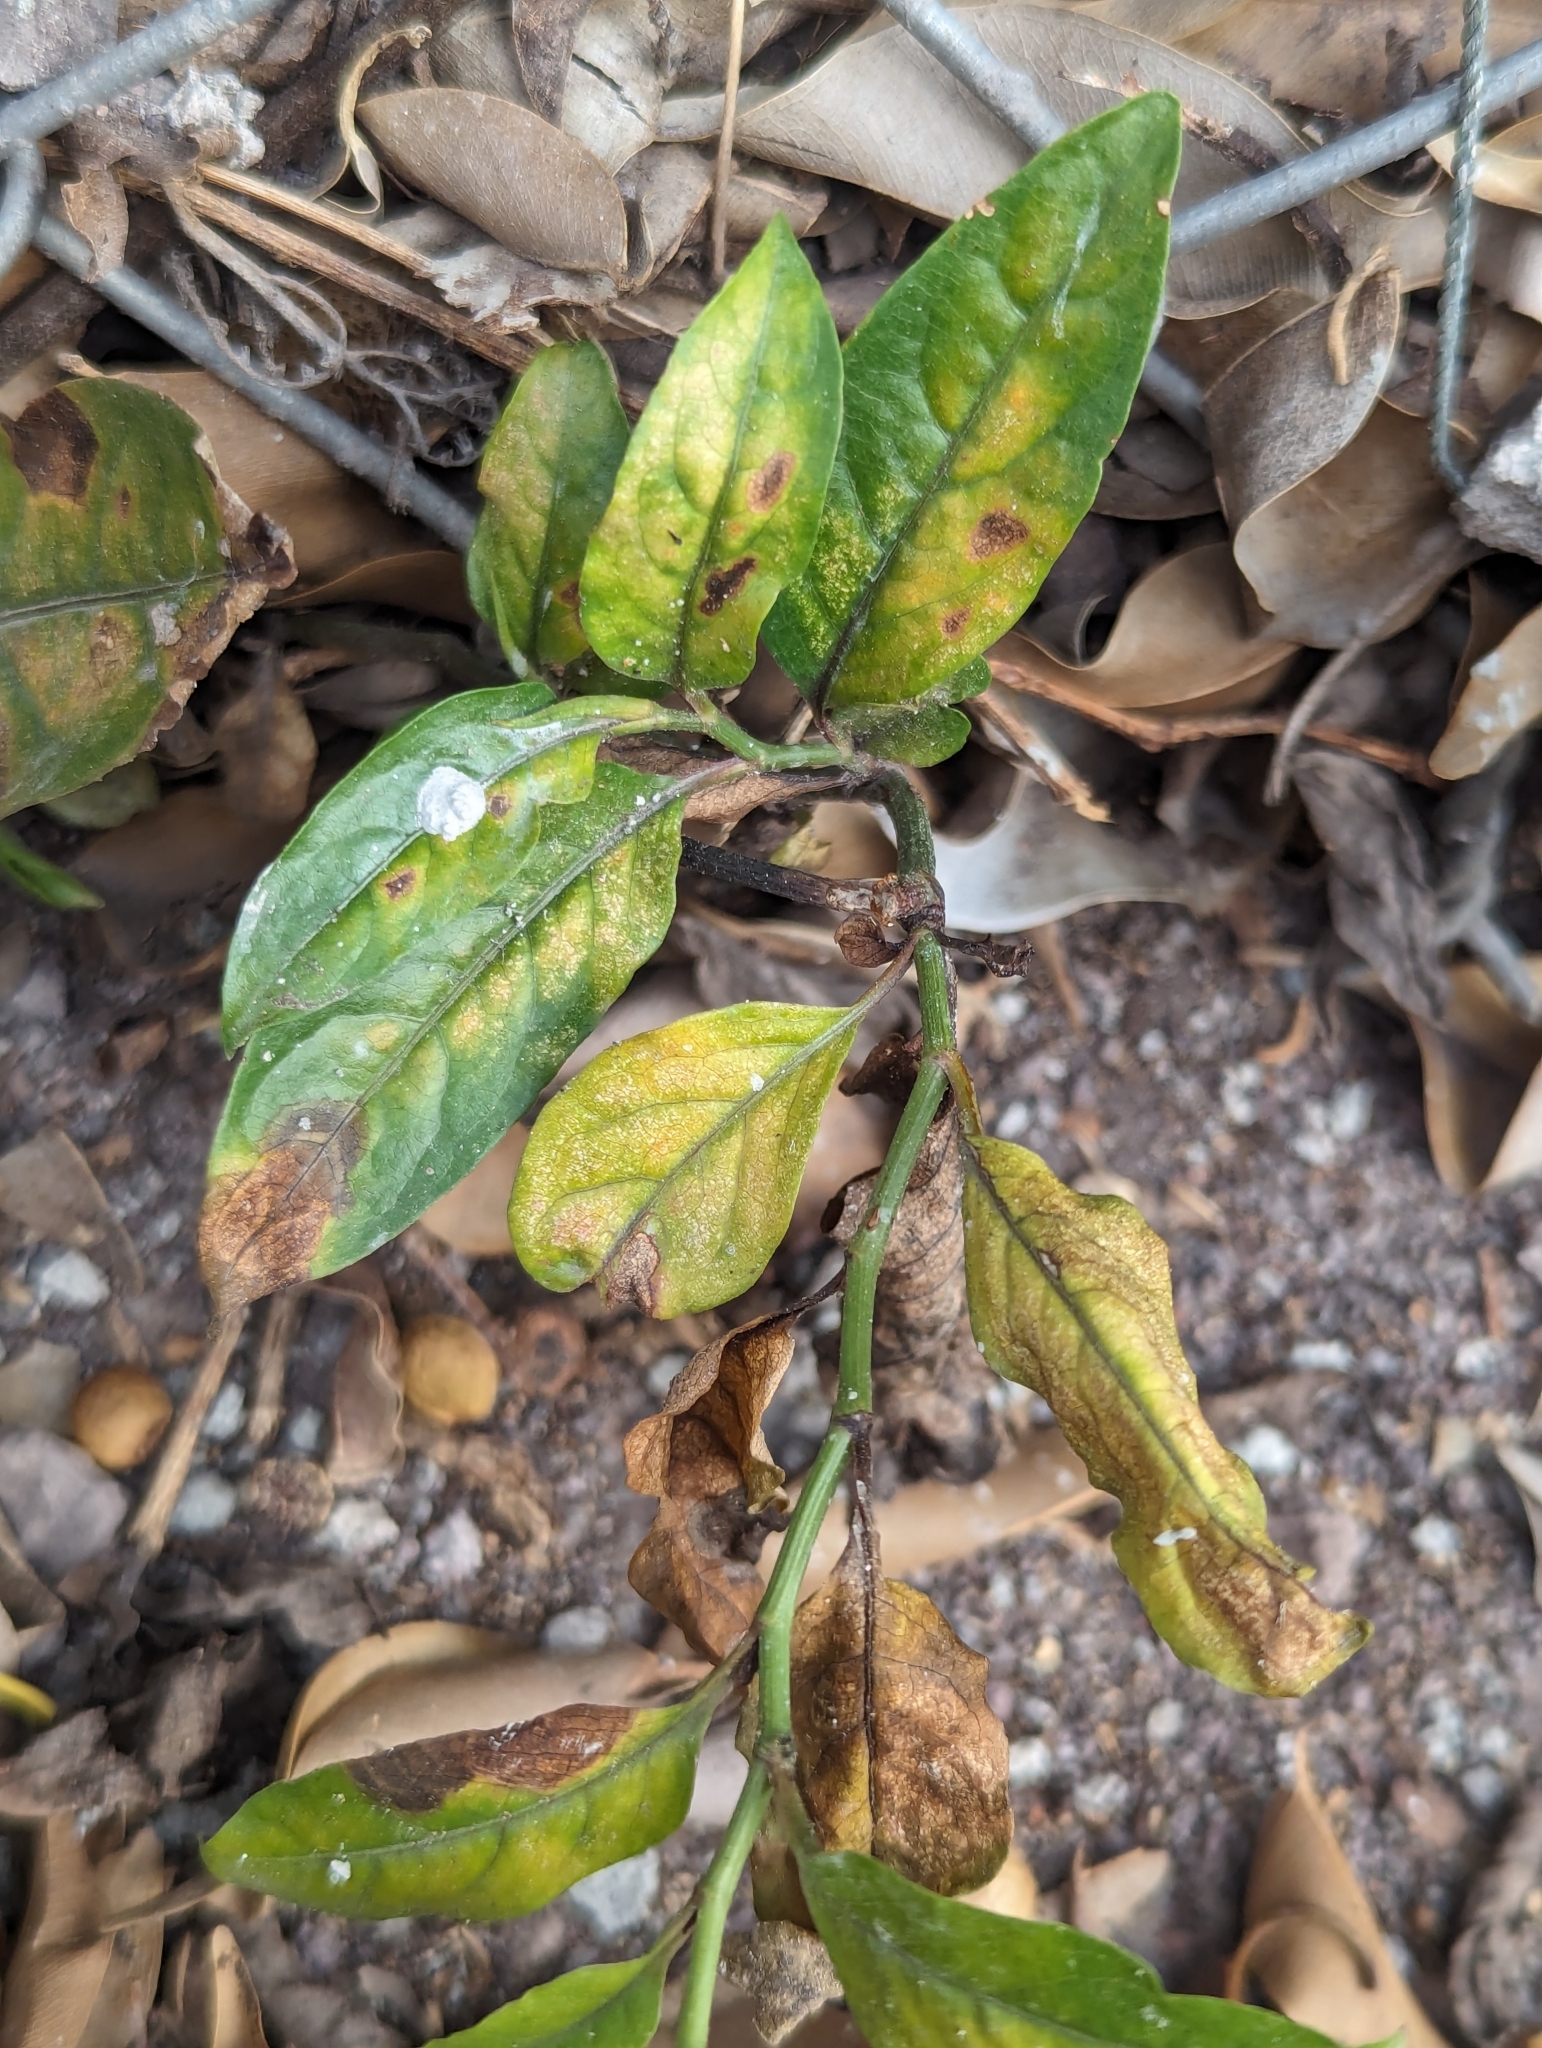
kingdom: Plantae
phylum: Tracheophyta
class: Magnoliopsida
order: Caryophyllales
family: Plumbaginaceae
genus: Plumbago
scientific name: Plumbago zeylanica
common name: Doctorbush
